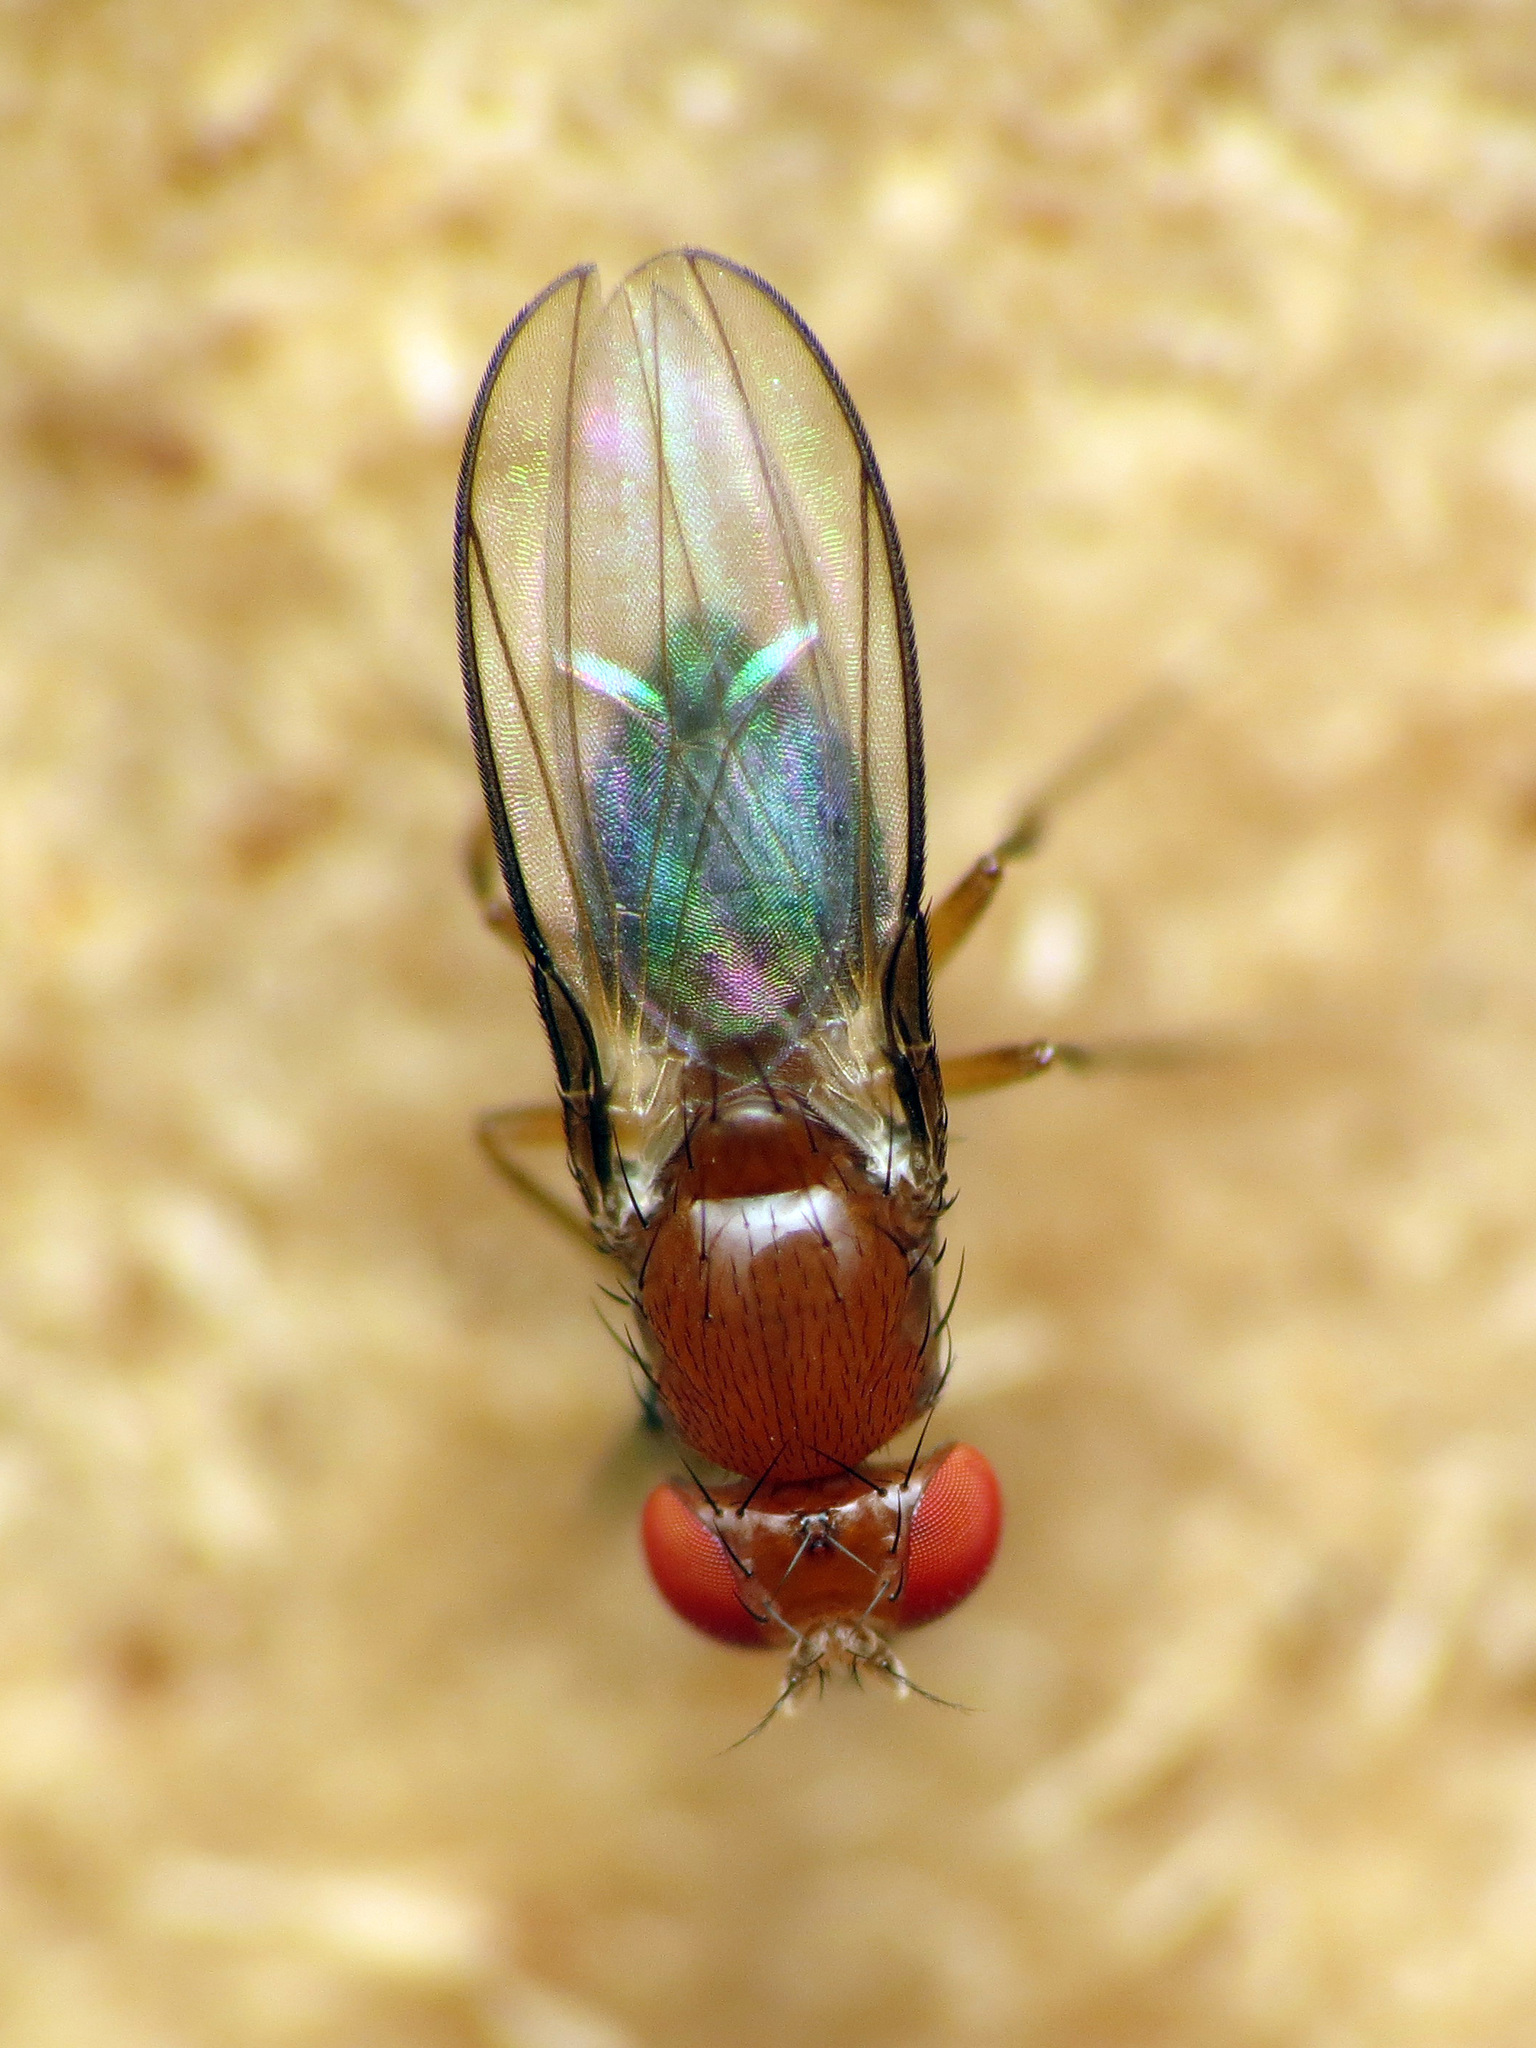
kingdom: Animalia
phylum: Arthropoda
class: Insecta
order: Diptera
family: Drosophilidae
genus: Chymomyza
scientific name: Chymomyza procnemoides
